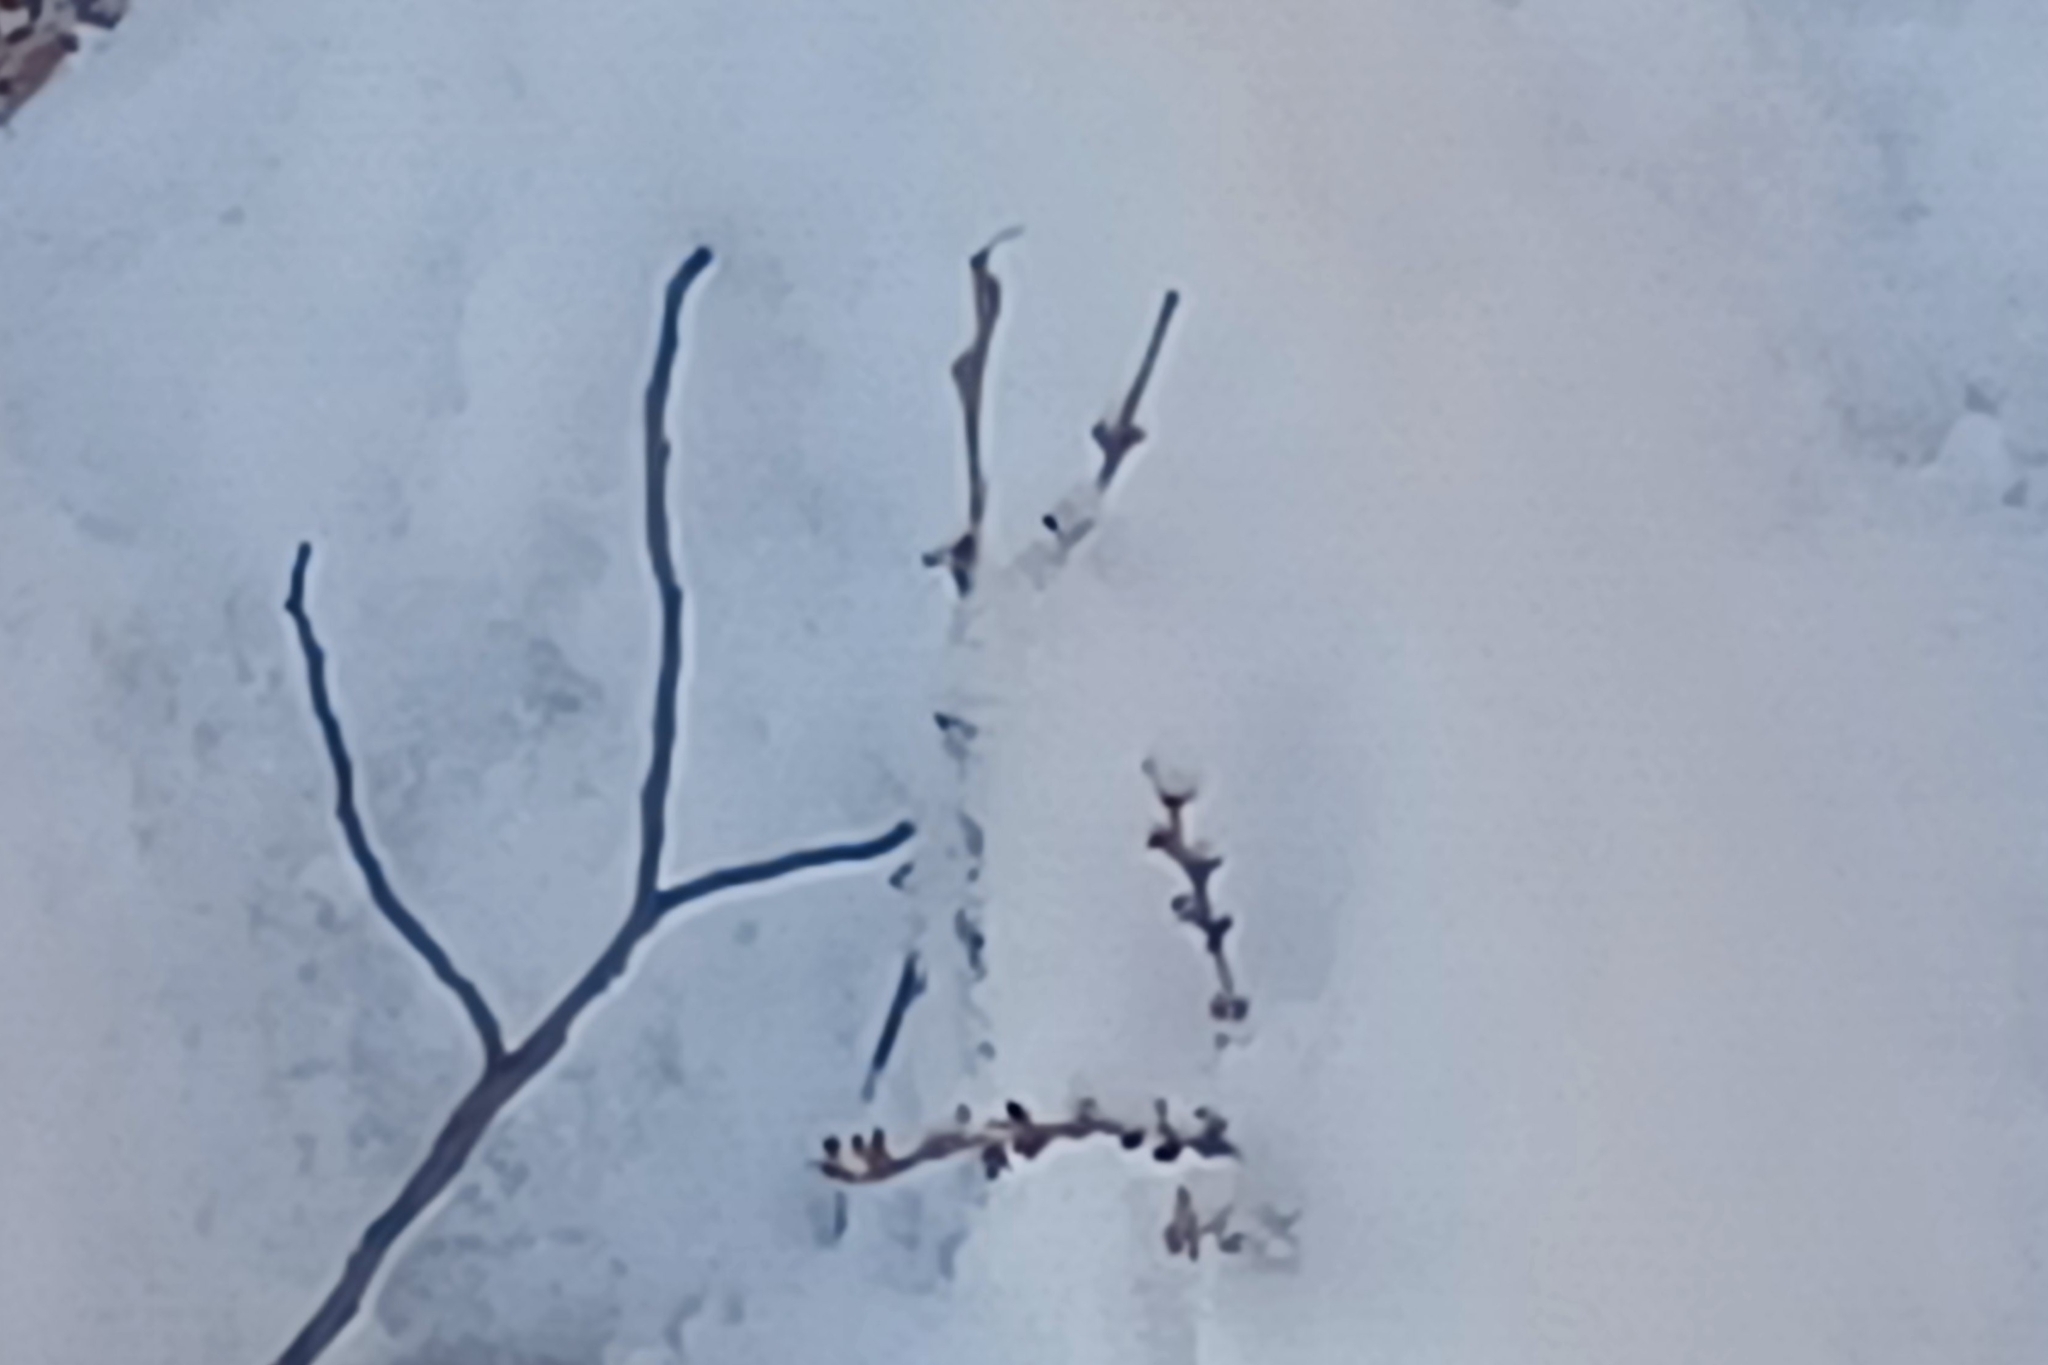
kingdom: Plantae
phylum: Tracheophyta
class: Magnoliopsida
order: Lamiales
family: Orobanchaceae
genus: Epifagus
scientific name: Epifagus virginiana
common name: Beechdrops
